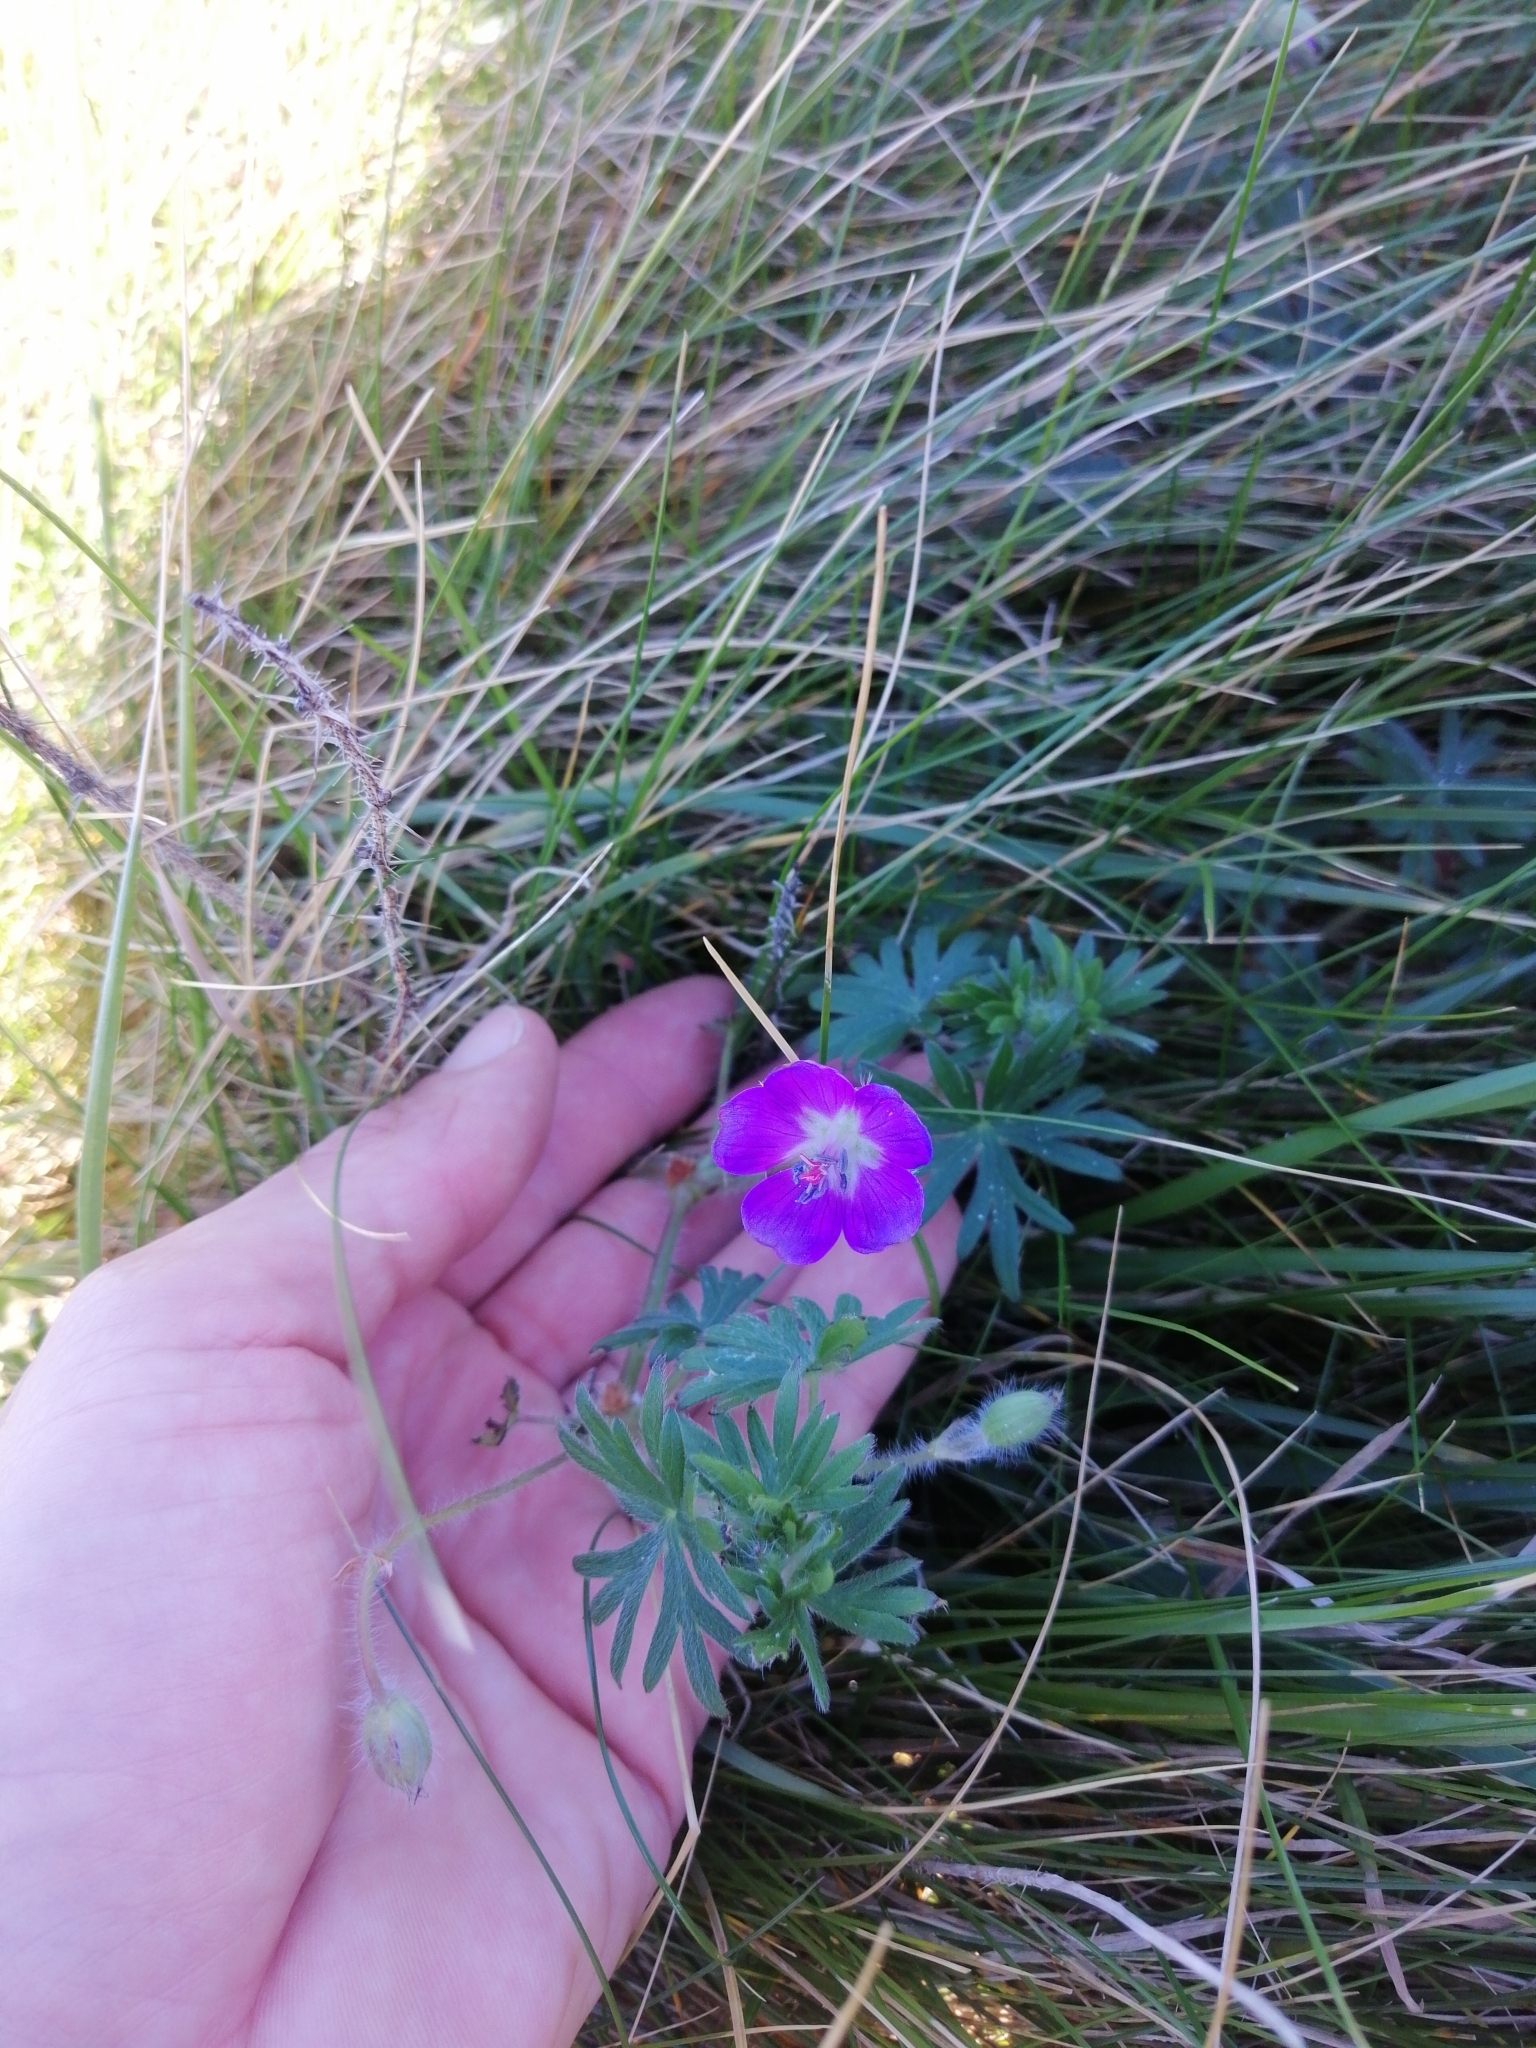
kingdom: Plantae
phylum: Tracheophyta
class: Magnoliopsida
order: Geraniales
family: Geraniaceae
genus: Geranium
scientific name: Geranium sanguineum
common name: Bloody crane's-bill
